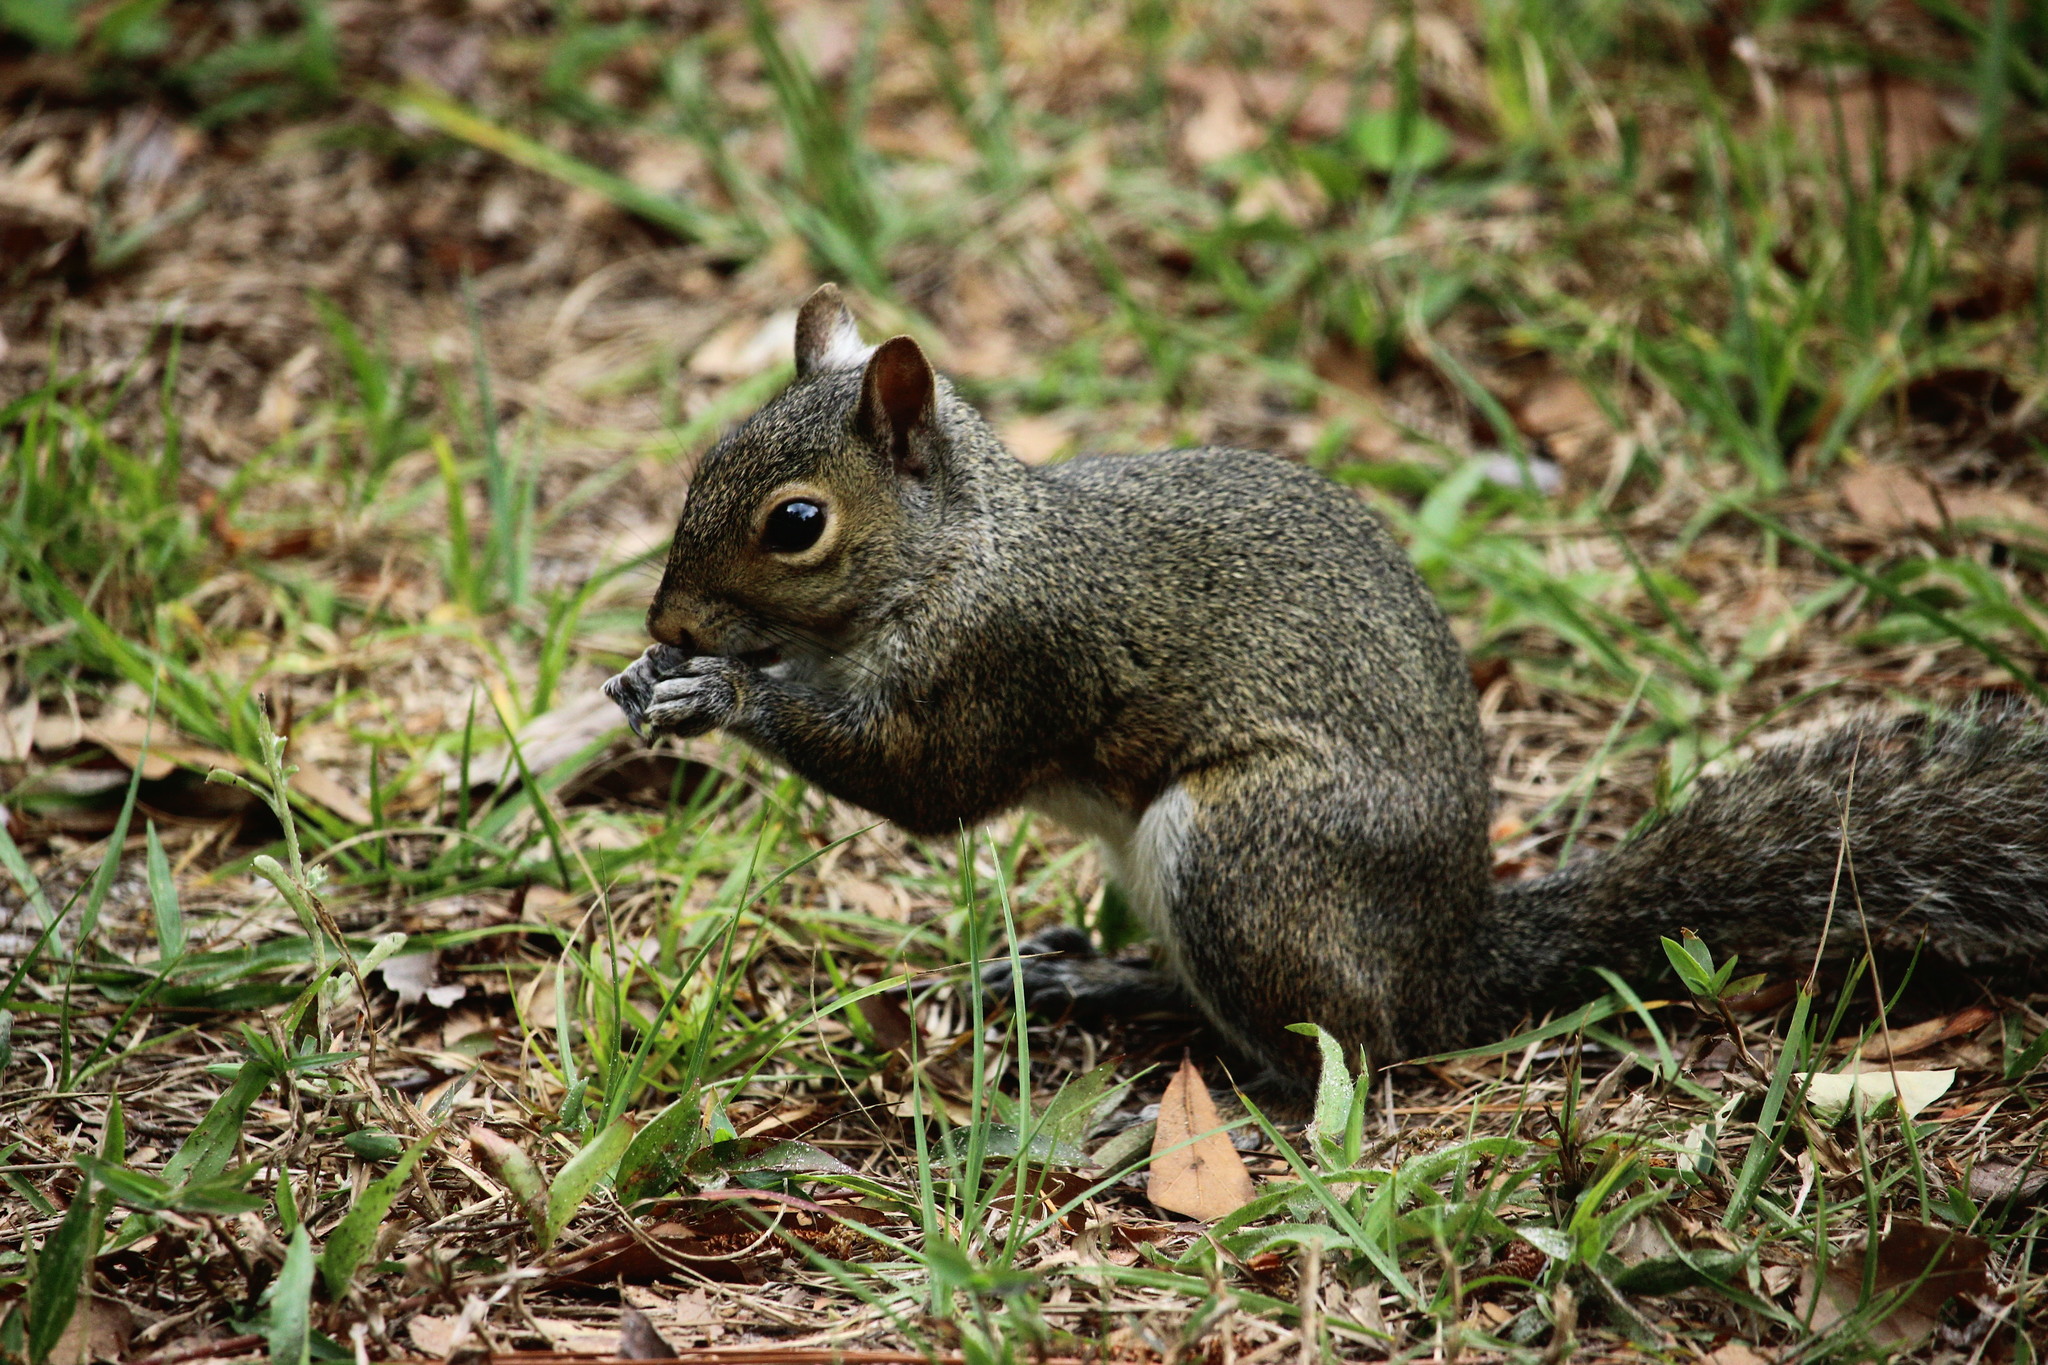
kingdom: Animalia
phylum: Chordata
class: Mammalia
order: Rodentia
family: Sciuridae
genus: Sciurus
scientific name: Sciurus carolinensis
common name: Eastern gray squirrel
